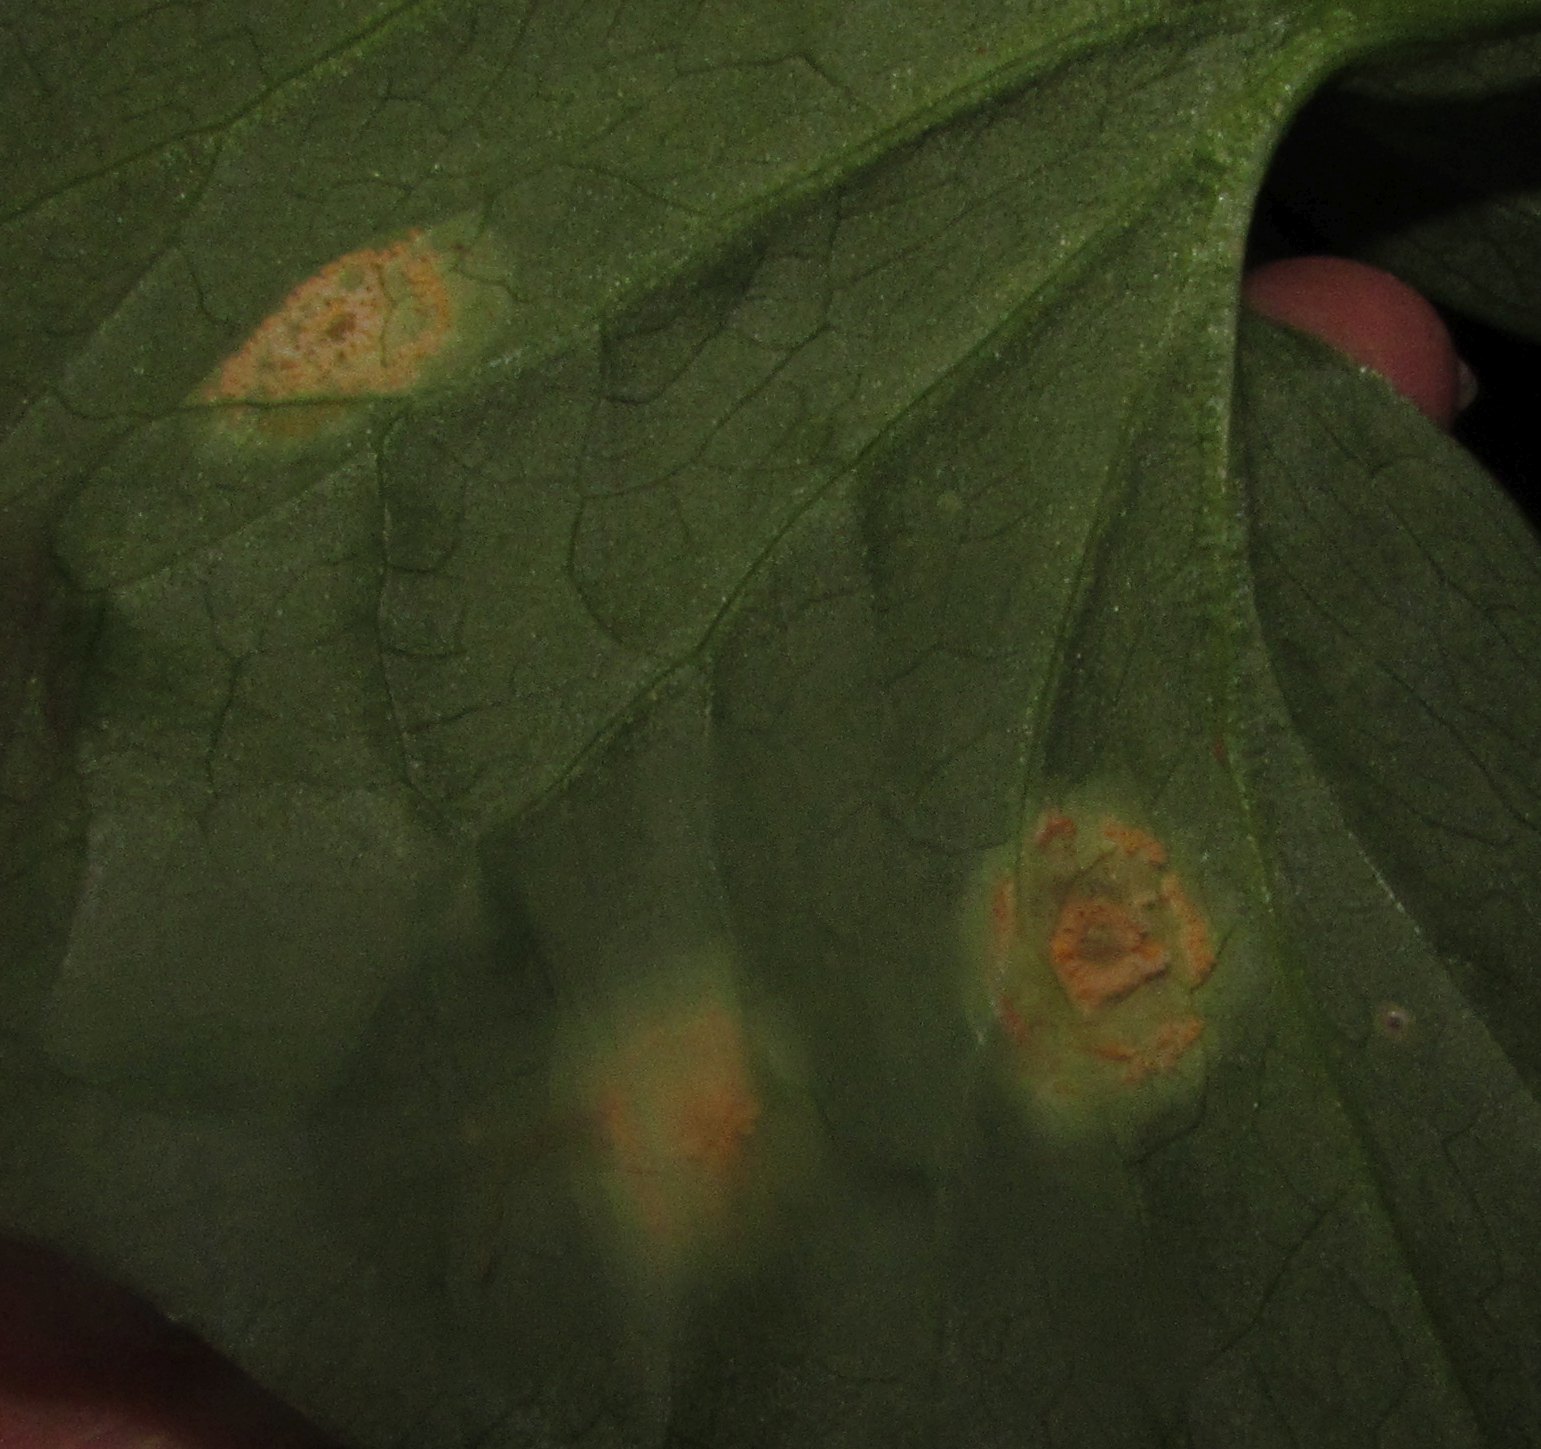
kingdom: Fungi
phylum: Basidiomycota
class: Pucciniomycetes
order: Pucciniales
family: Pucciniaceae
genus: Puccinia
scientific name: Puccinia sessilis
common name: Arum rust
